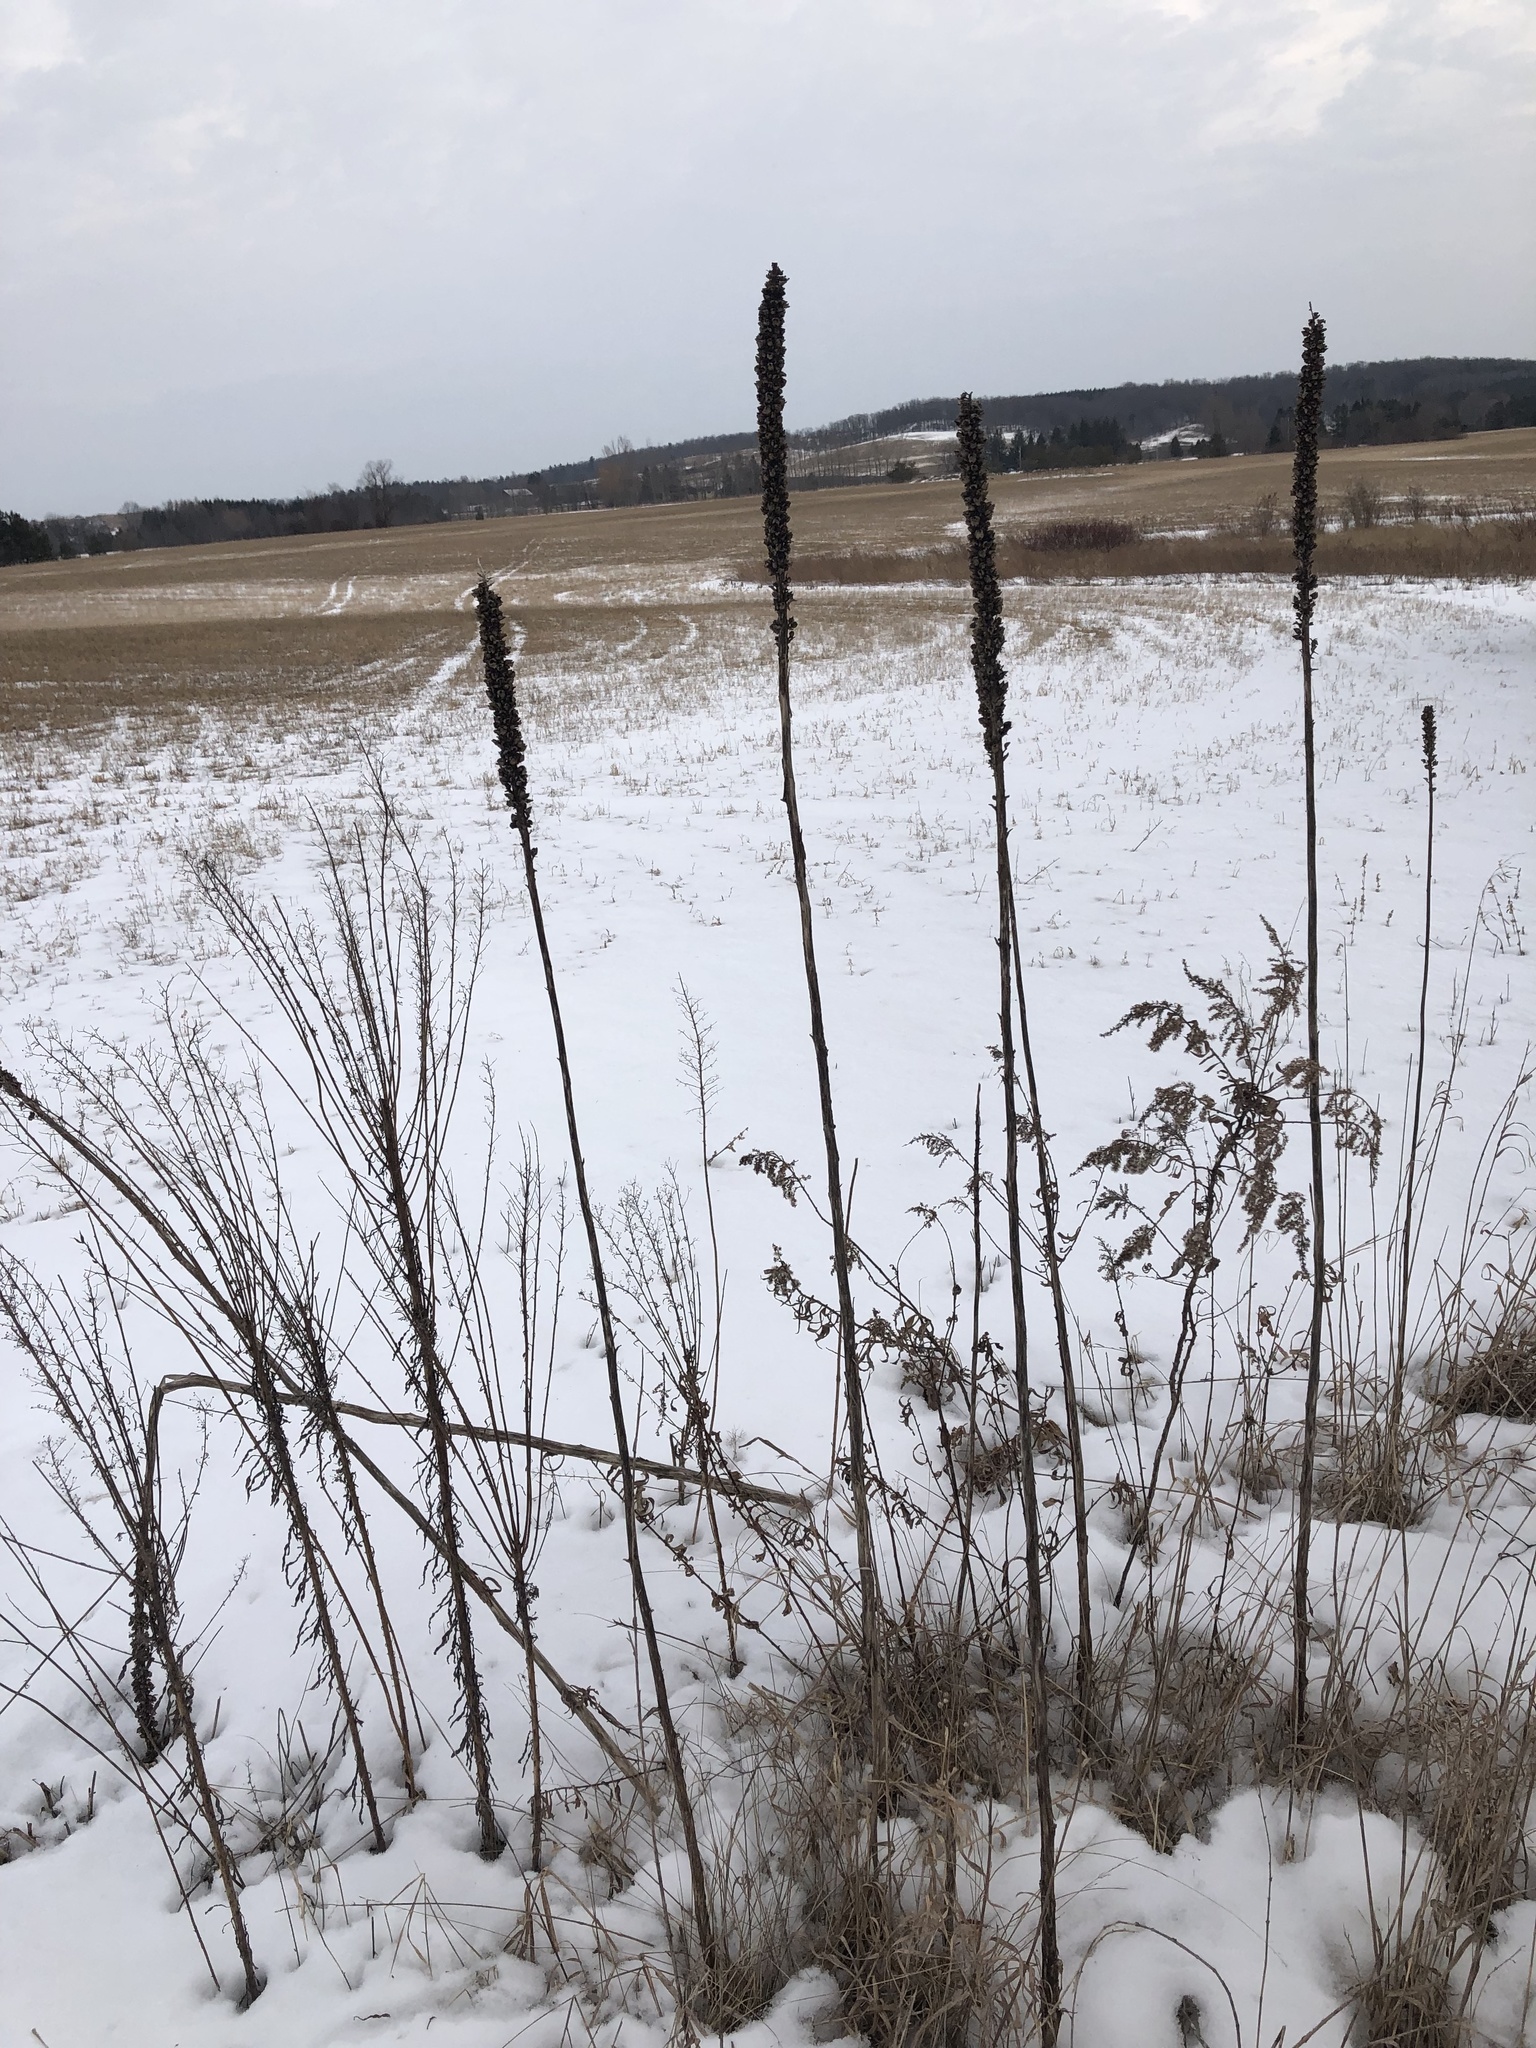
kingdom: Plantae
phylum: Tracheophyta
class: Magnoliopsida
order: Lamiales
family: Scrophulariaceae
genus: Verbascum
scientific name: Verbascum thapsus
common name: Common mullein
